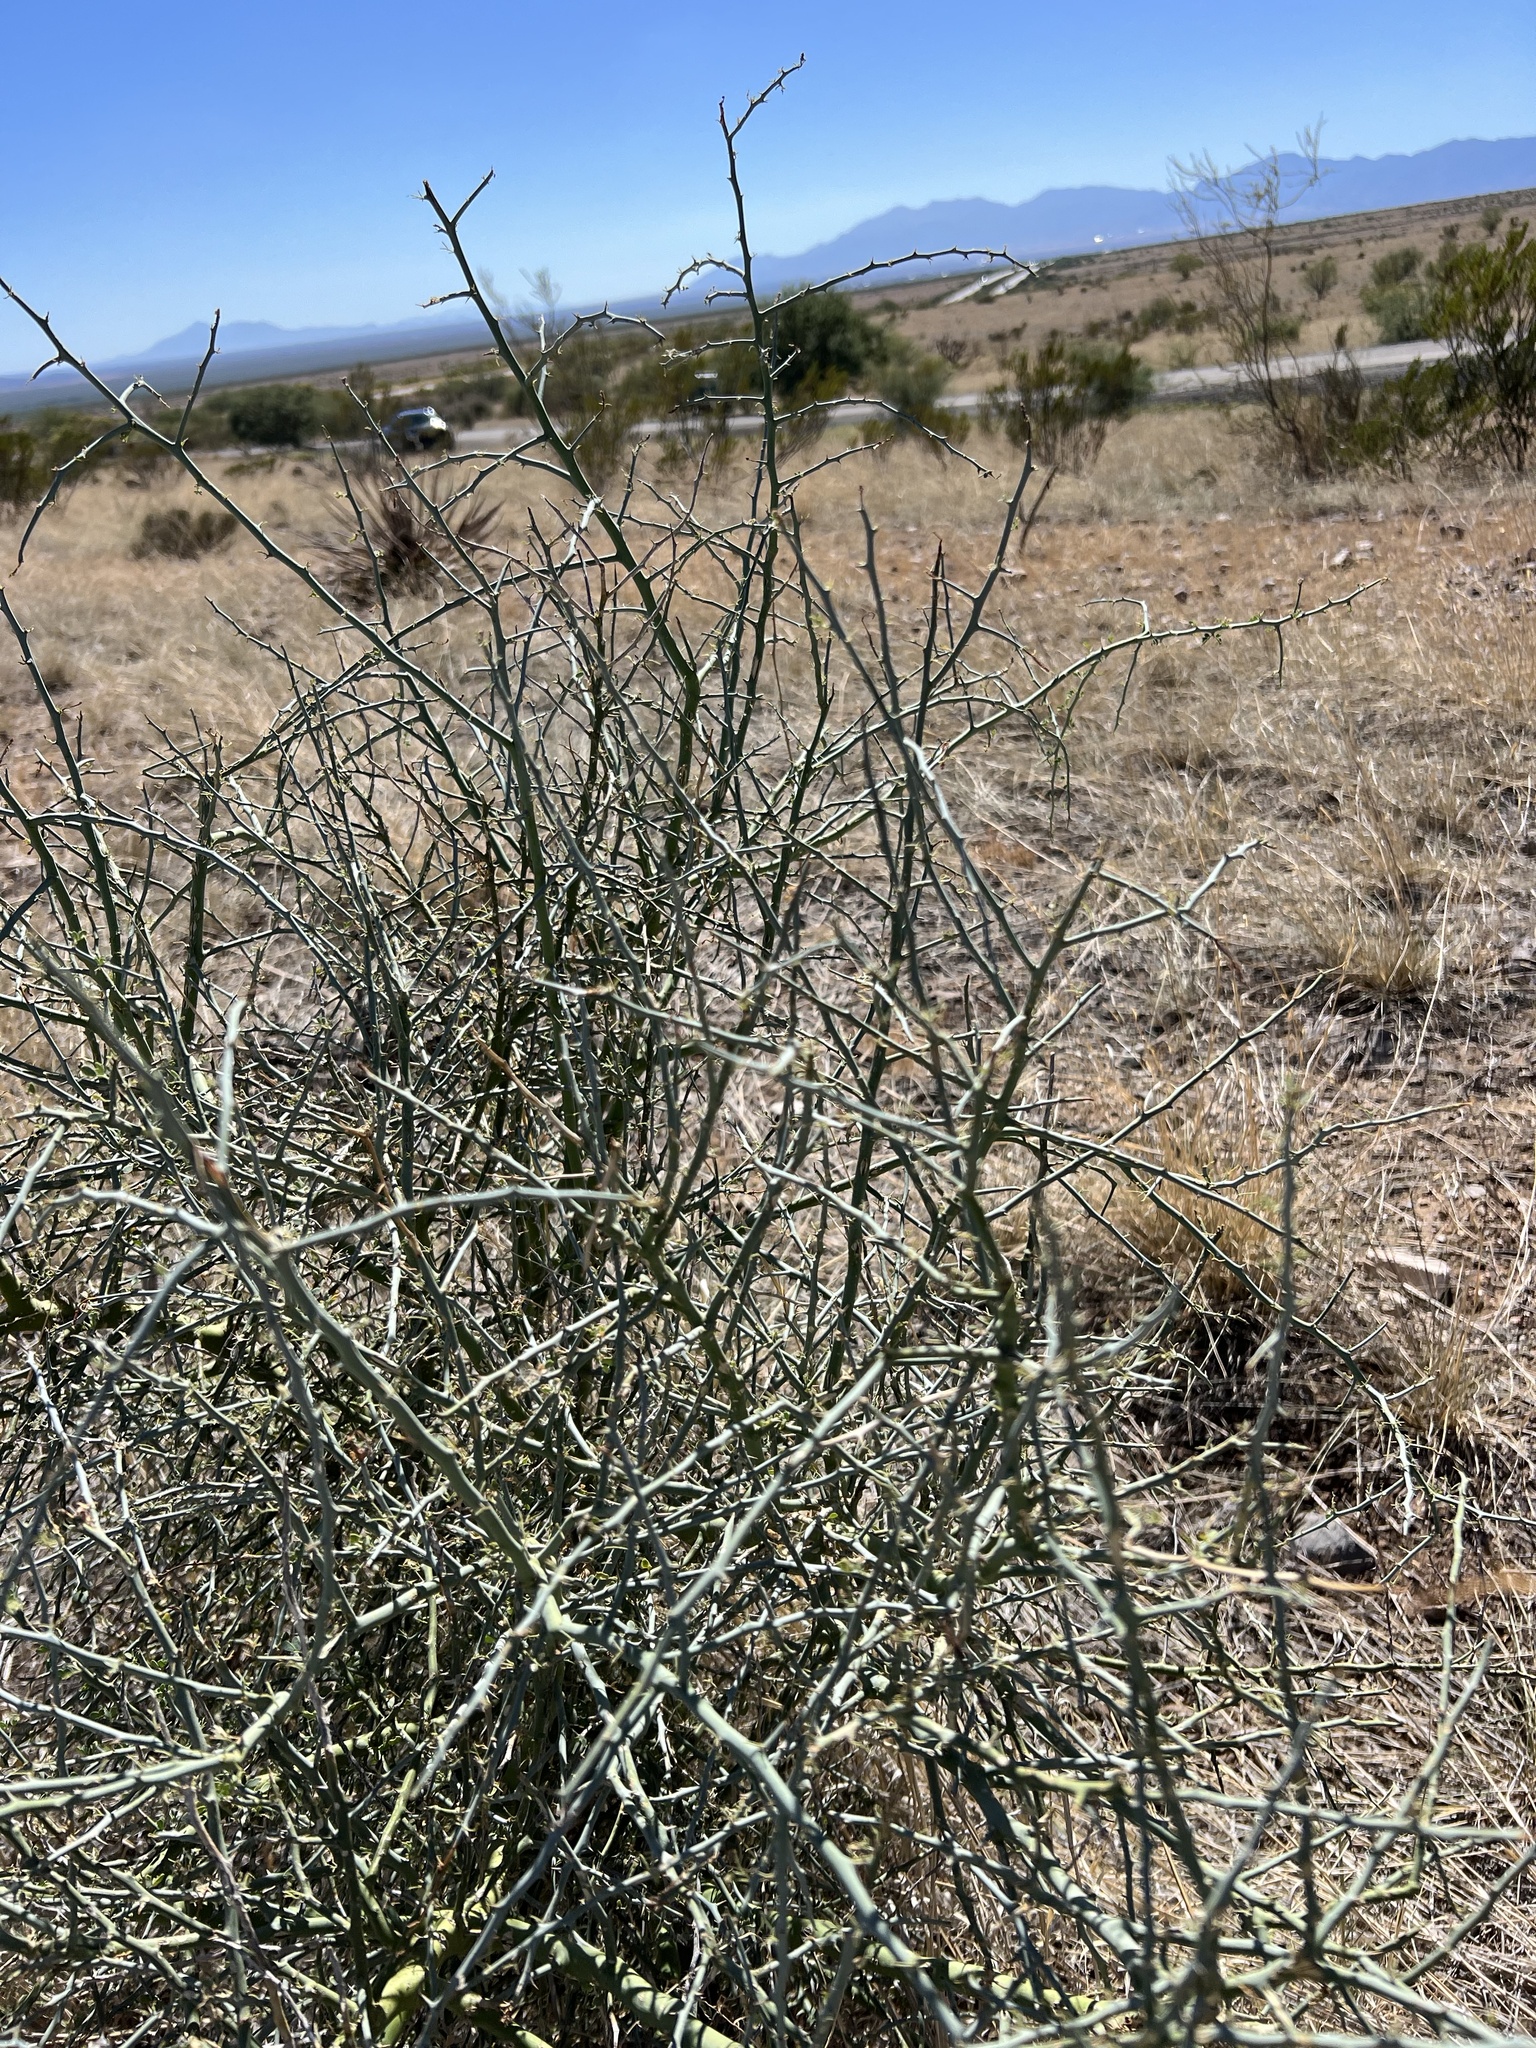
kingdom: Plantae
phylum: Tracheophyta
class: Magnoliopsida
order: Fabales
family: Fabaceae
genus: Parkinsonia
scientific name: Parkinsonia florida
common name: Blue paloverde
